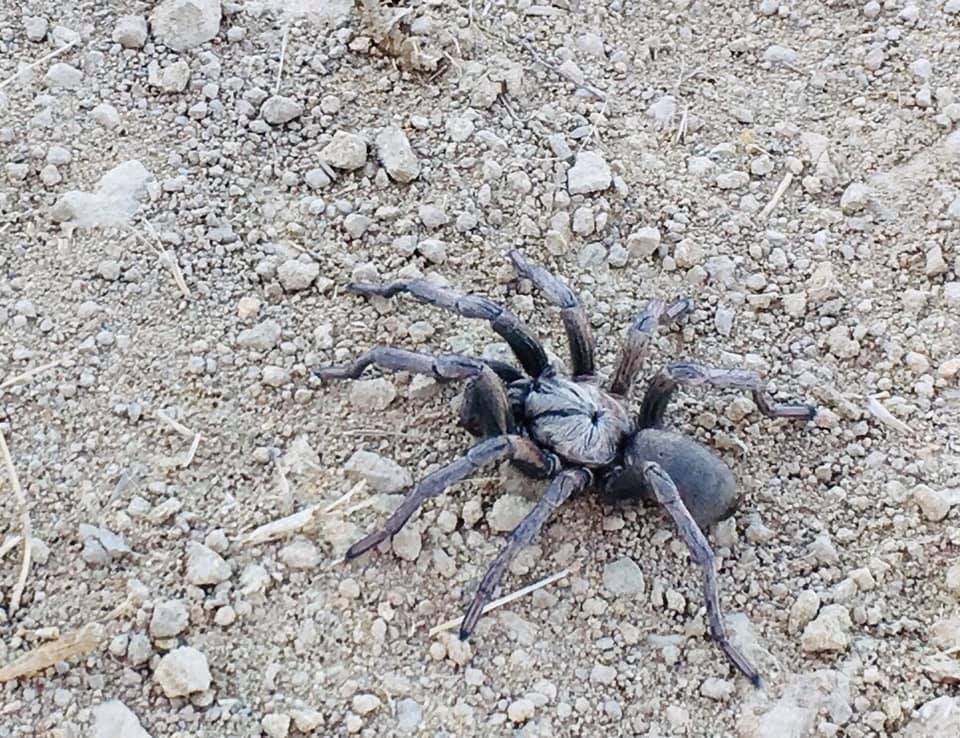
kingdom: Animalia
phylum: Arthropoda
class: Arachnida
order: Araneae
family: Nemesiidae
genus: Calisoga
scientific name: Calisoga longitarsis
